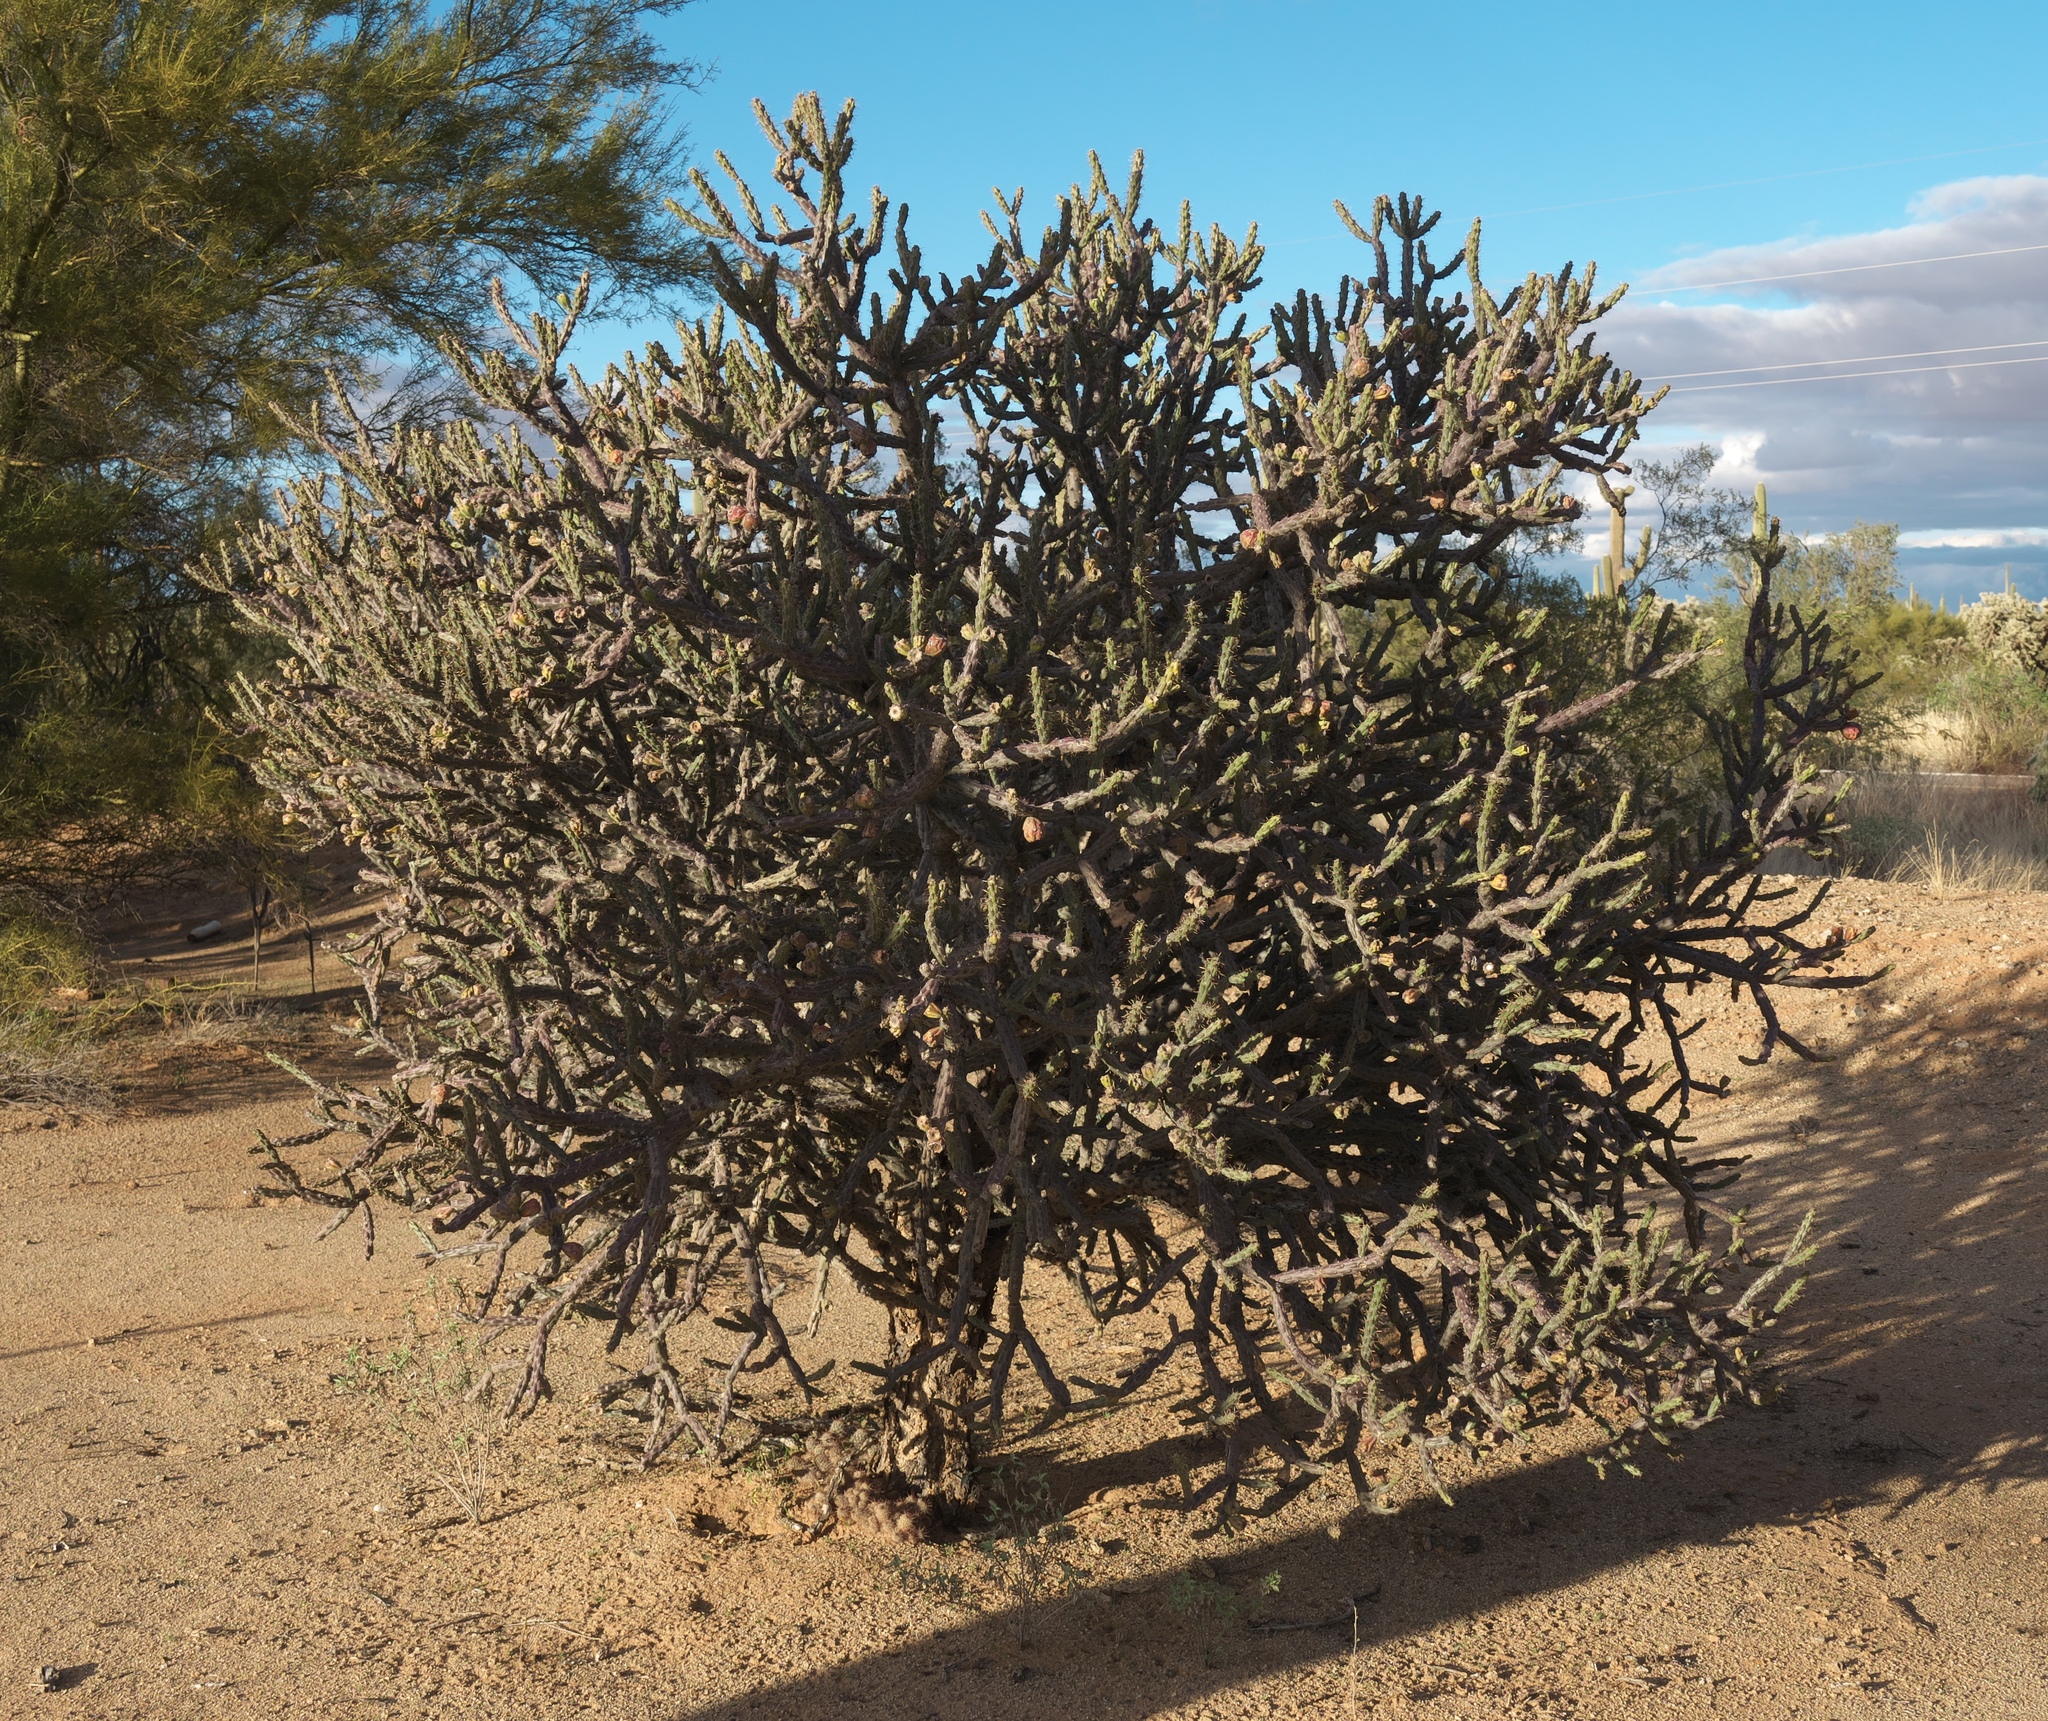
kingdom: Plantae
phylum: Tracheophyta
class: Magnoliopsida
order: Caryophyllales
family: Cactaceae
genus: Cylindropuntia
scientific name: Cylindropuntia thurberi
